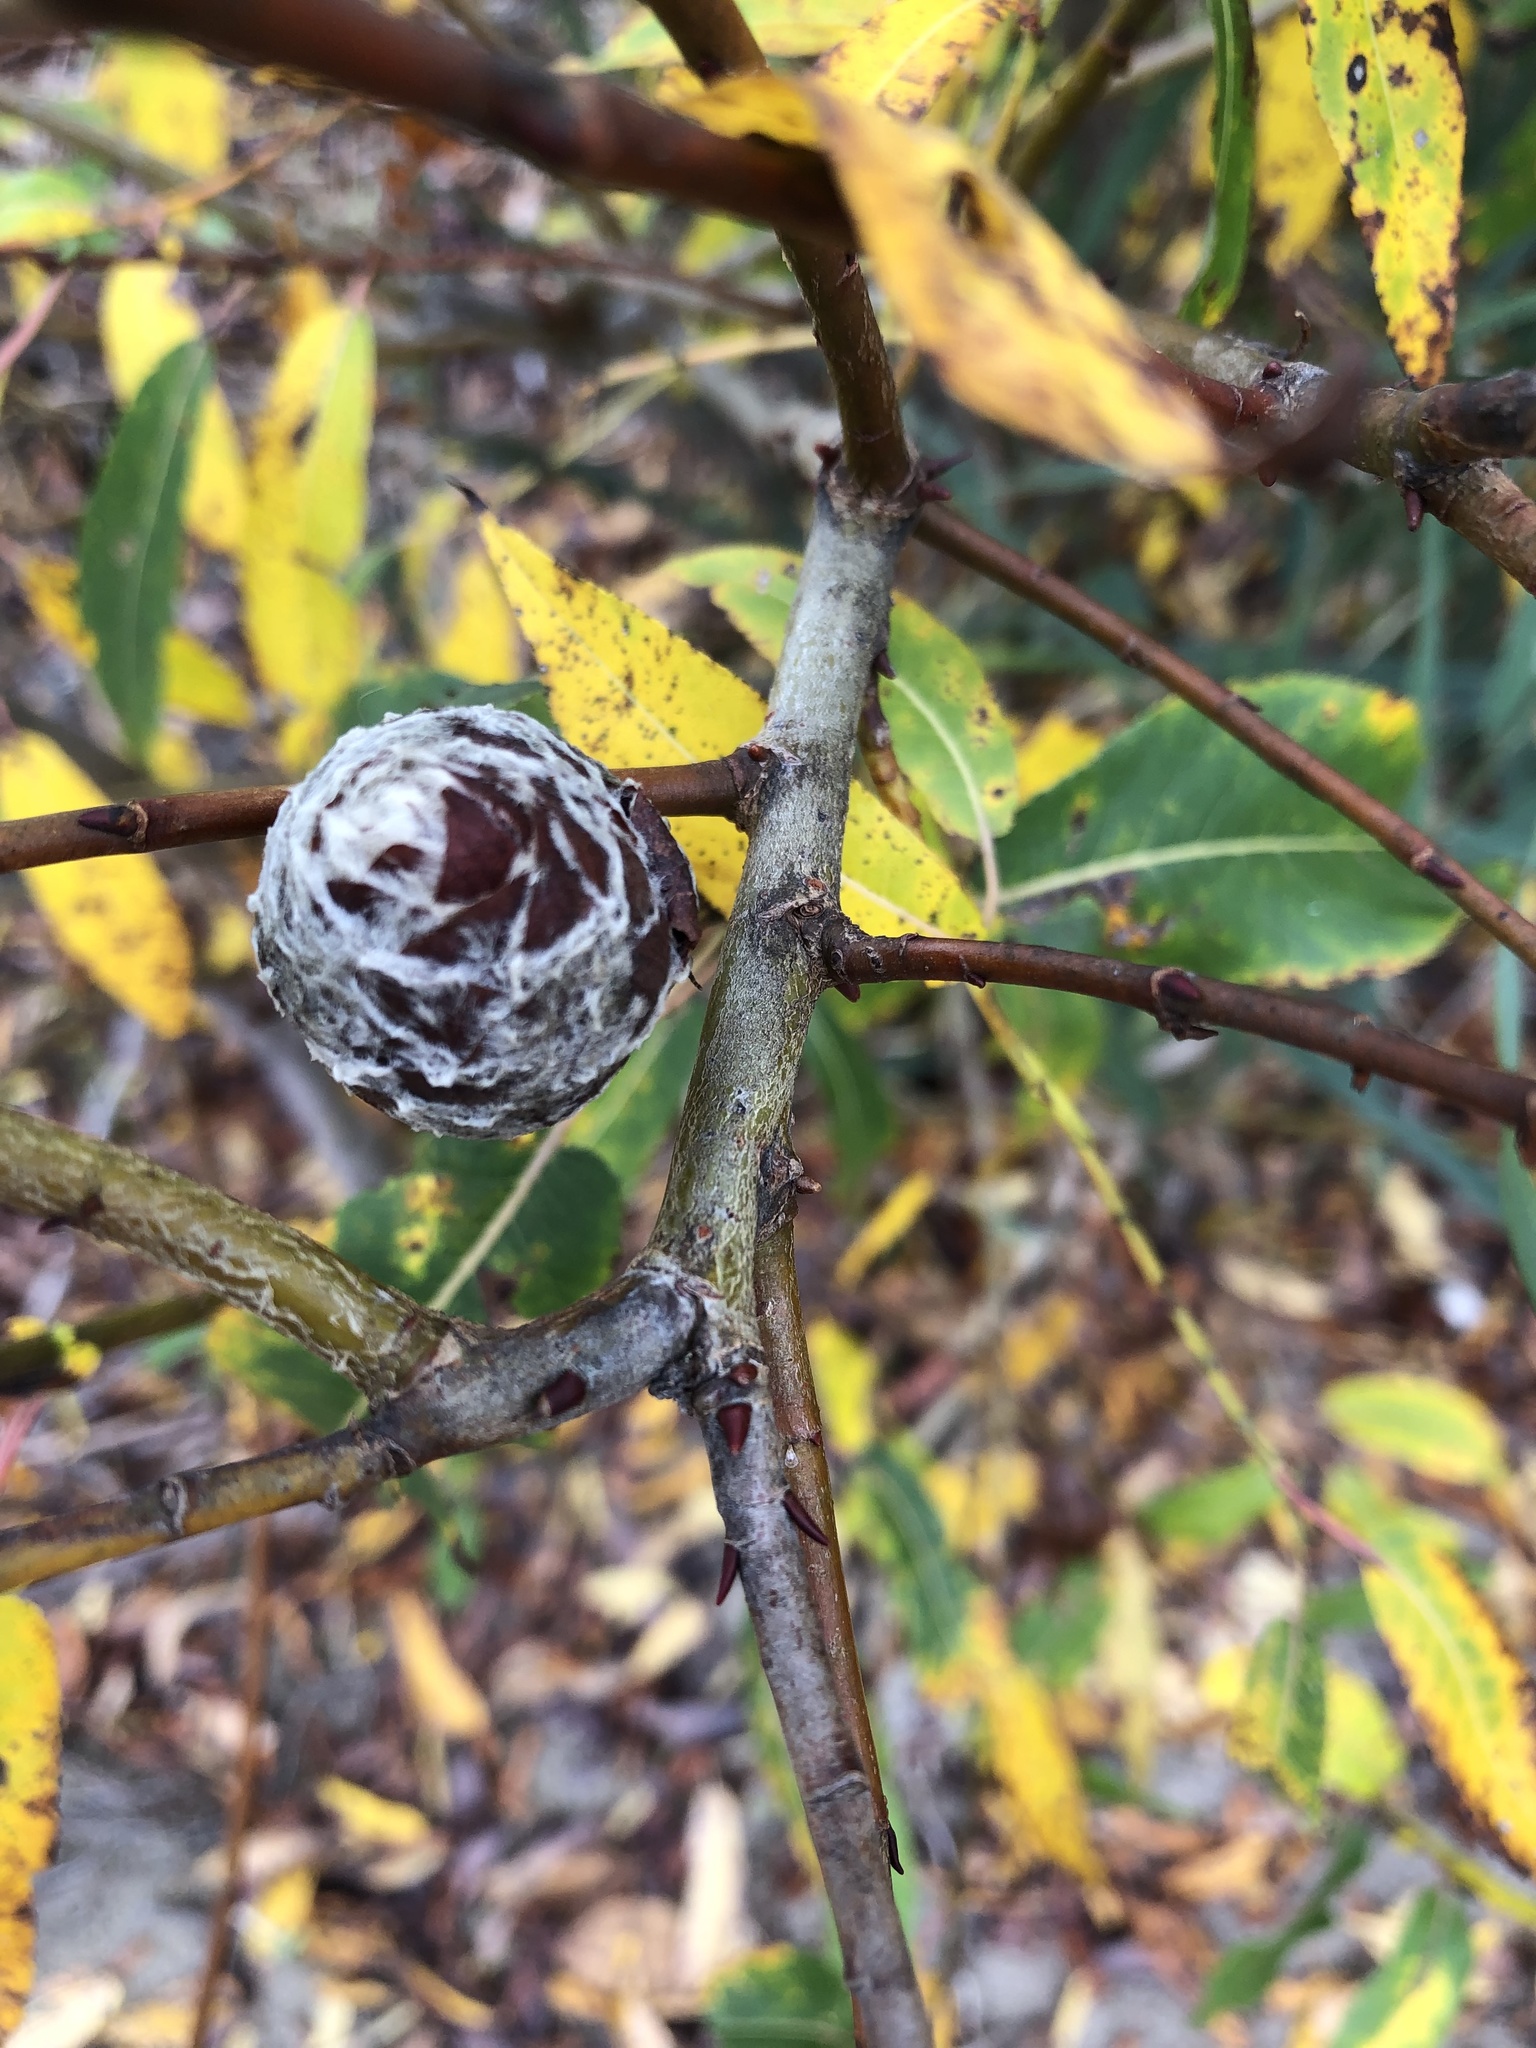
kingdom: Animalia
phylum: Arthropoda
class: Insecta
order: Diptera
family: Cecidomyiidae
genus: Rabdophaga
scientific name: Rabdophaga strobiloides
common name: Willow pinecone gall midge
